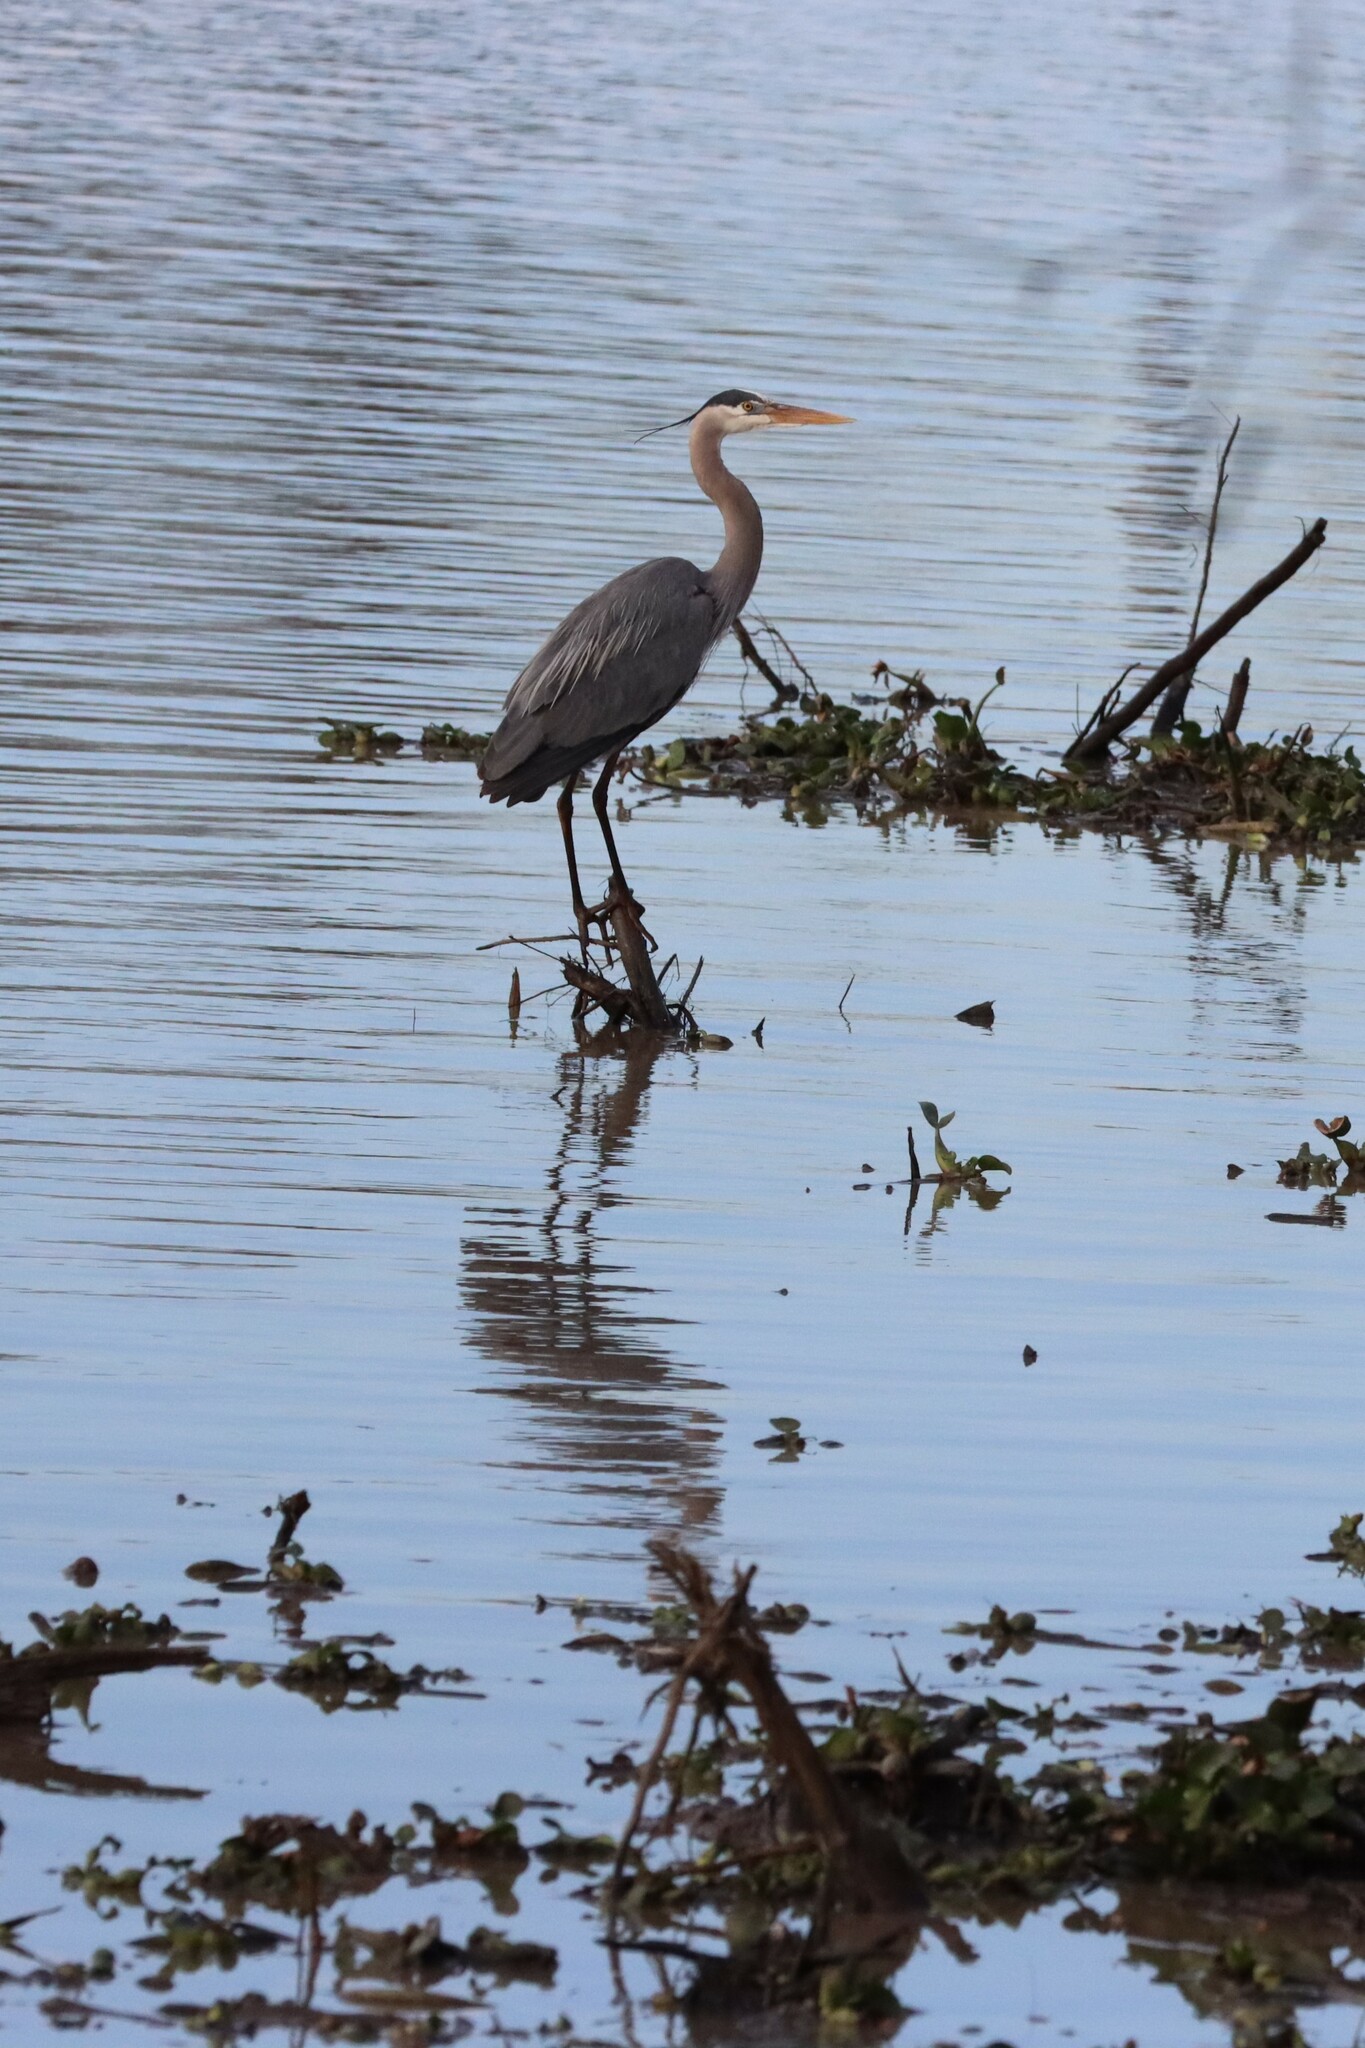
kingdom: Animalia
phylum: Chordata
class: Aves
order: Pelecaniformes
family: Ardeidae
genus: Ardea
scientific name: Ardea herodias
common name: Great blue heron
